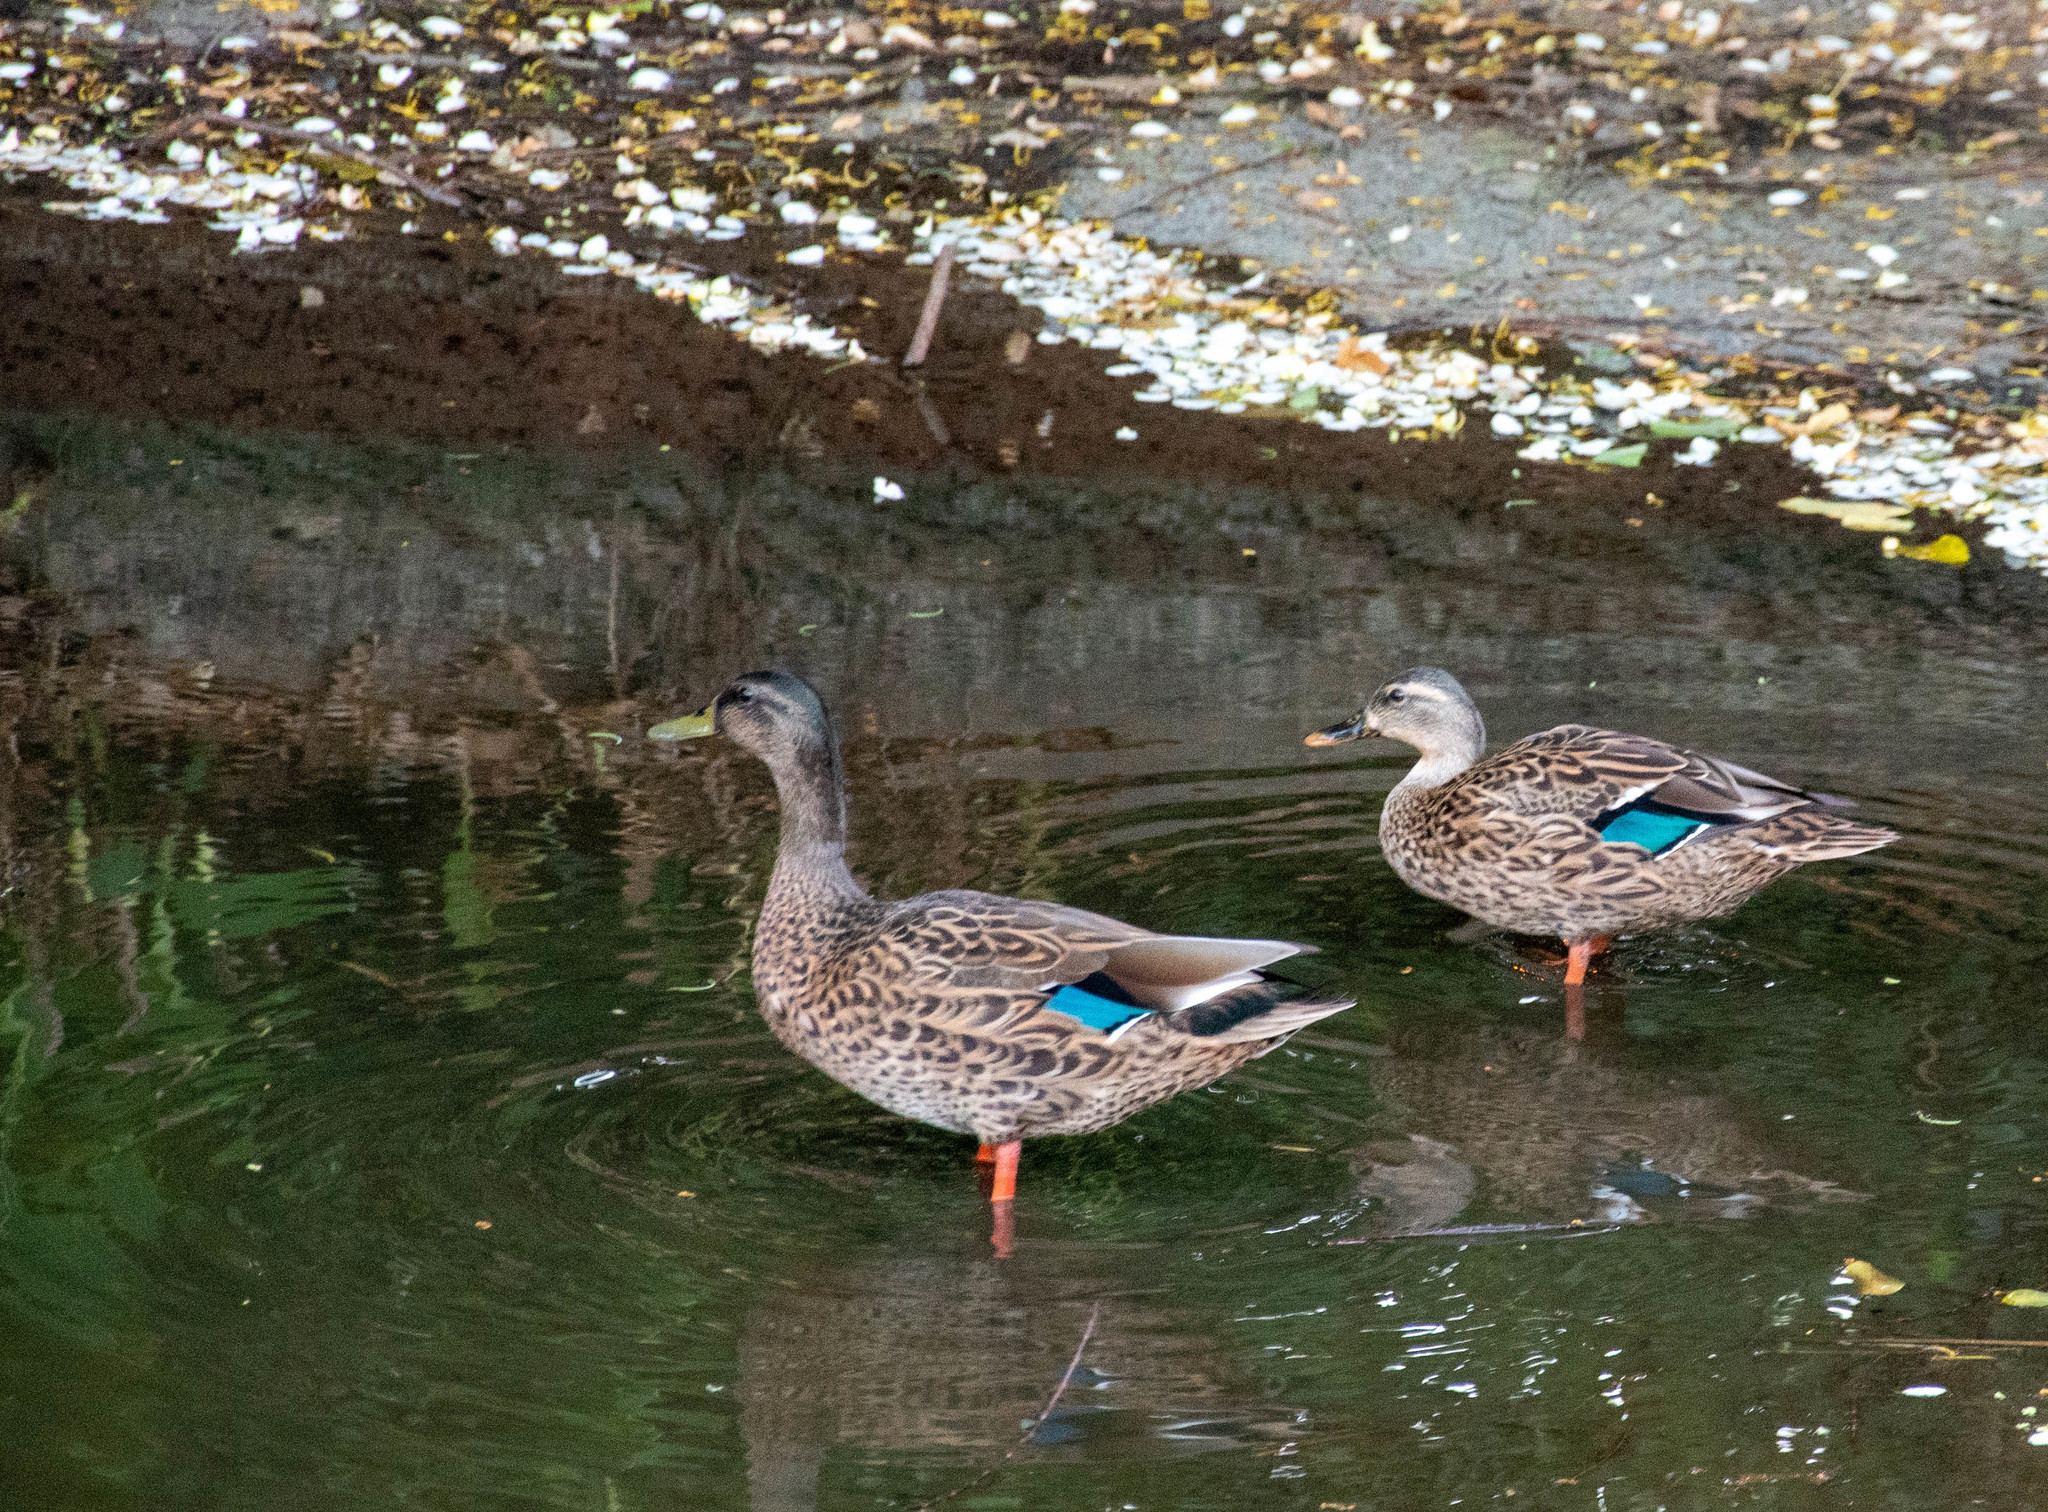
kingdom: Animalia
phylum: Chordata
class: Aves
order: Anseriformes
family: Anatidae
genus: Anas
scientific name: Anas
